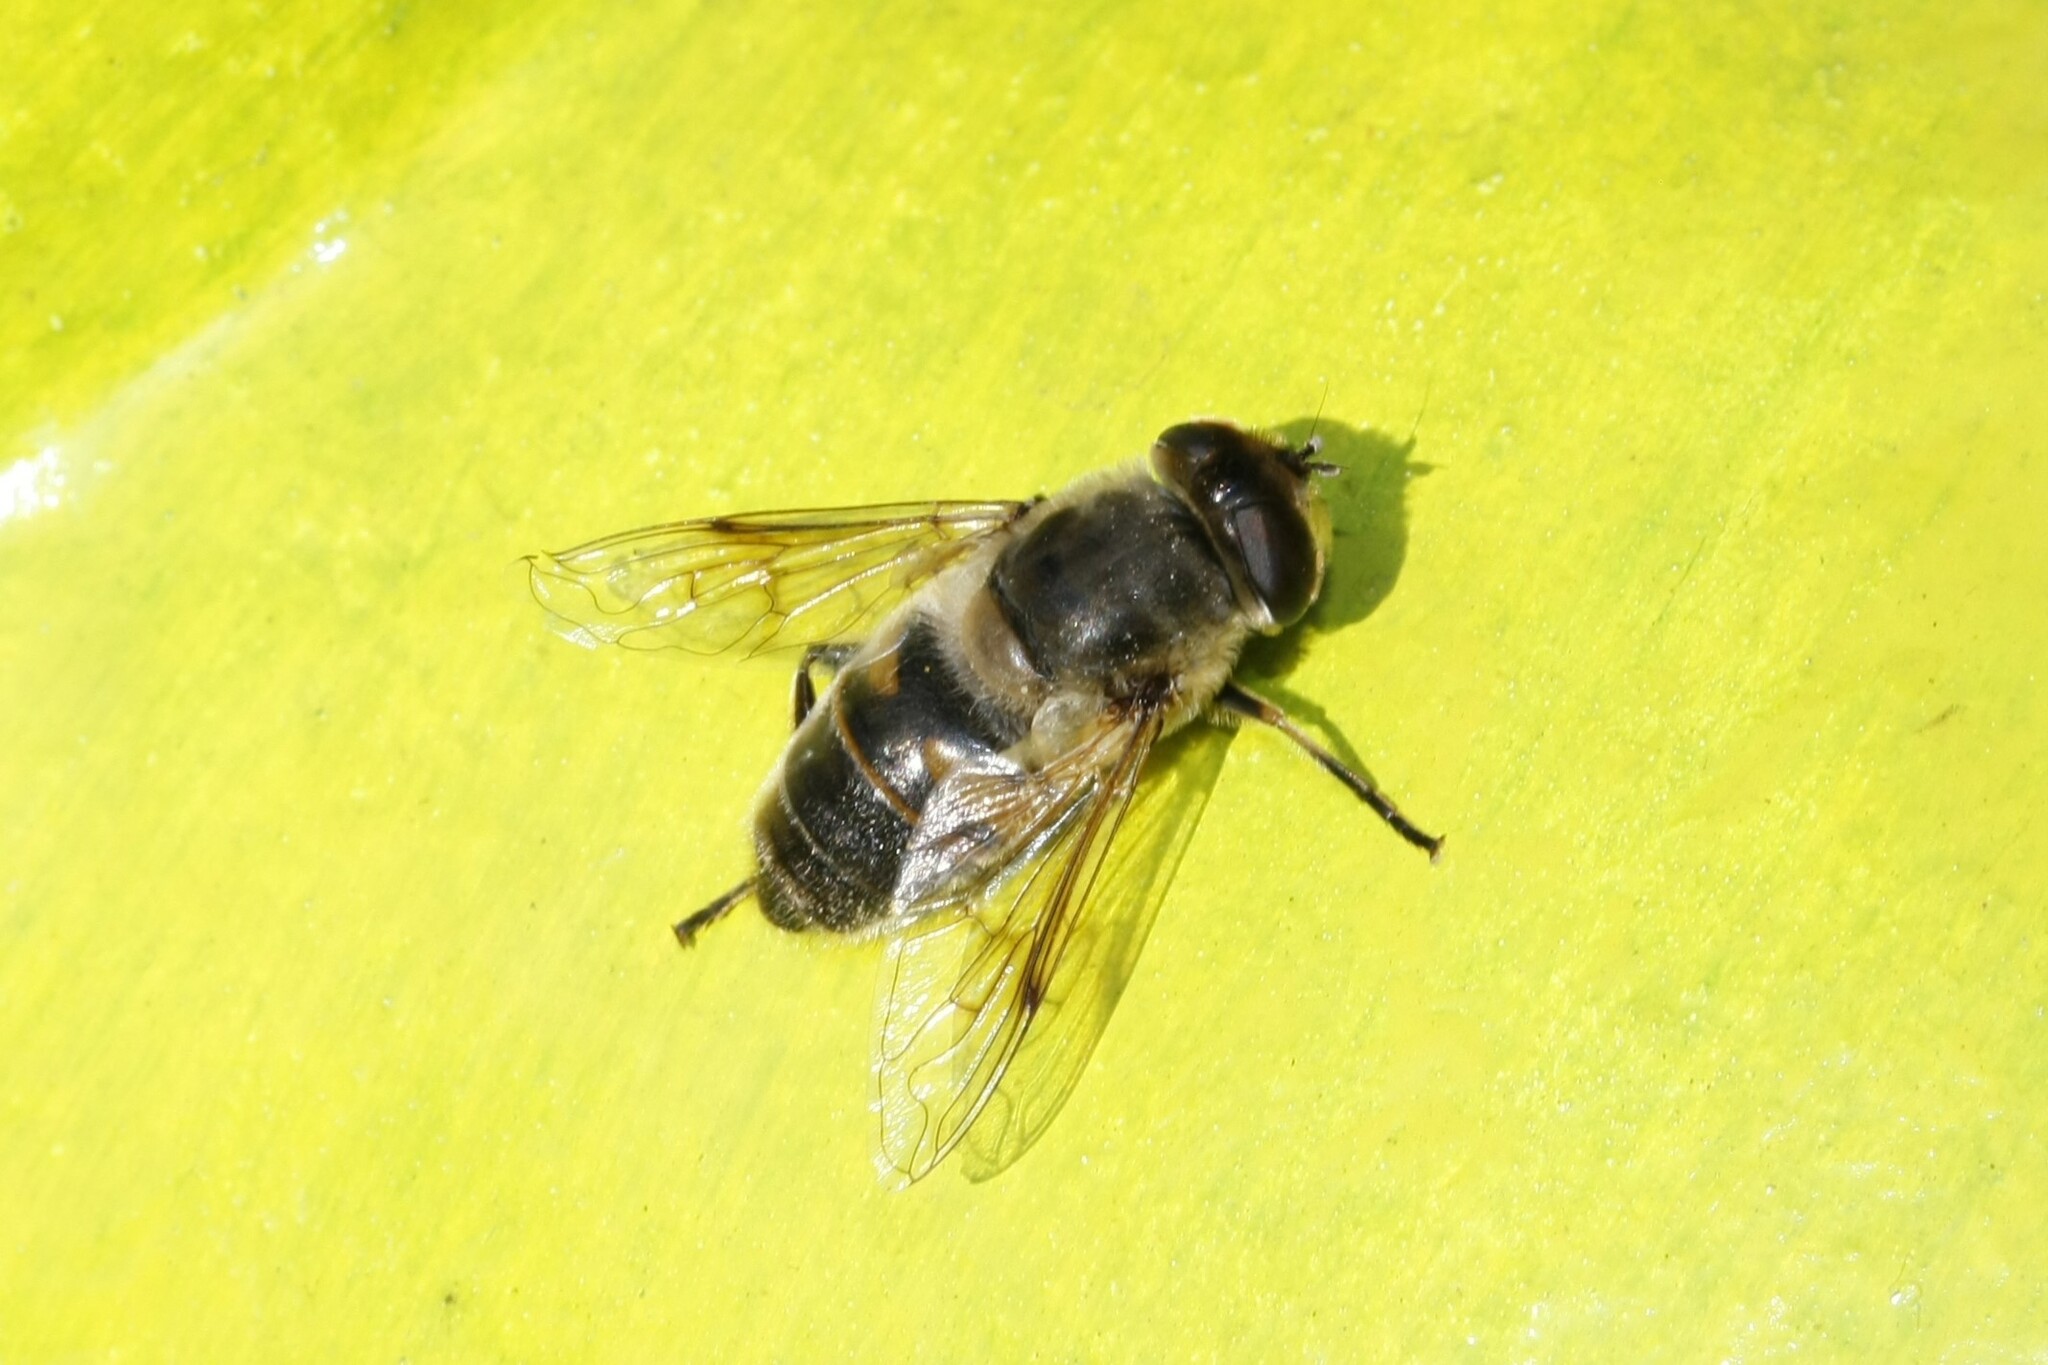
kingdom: Animalia
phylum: Arthropoda
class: Insecta
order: Diptera
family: Syrphidae
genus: Eristalis
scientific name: Eristalis tenax
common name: Drone fly
